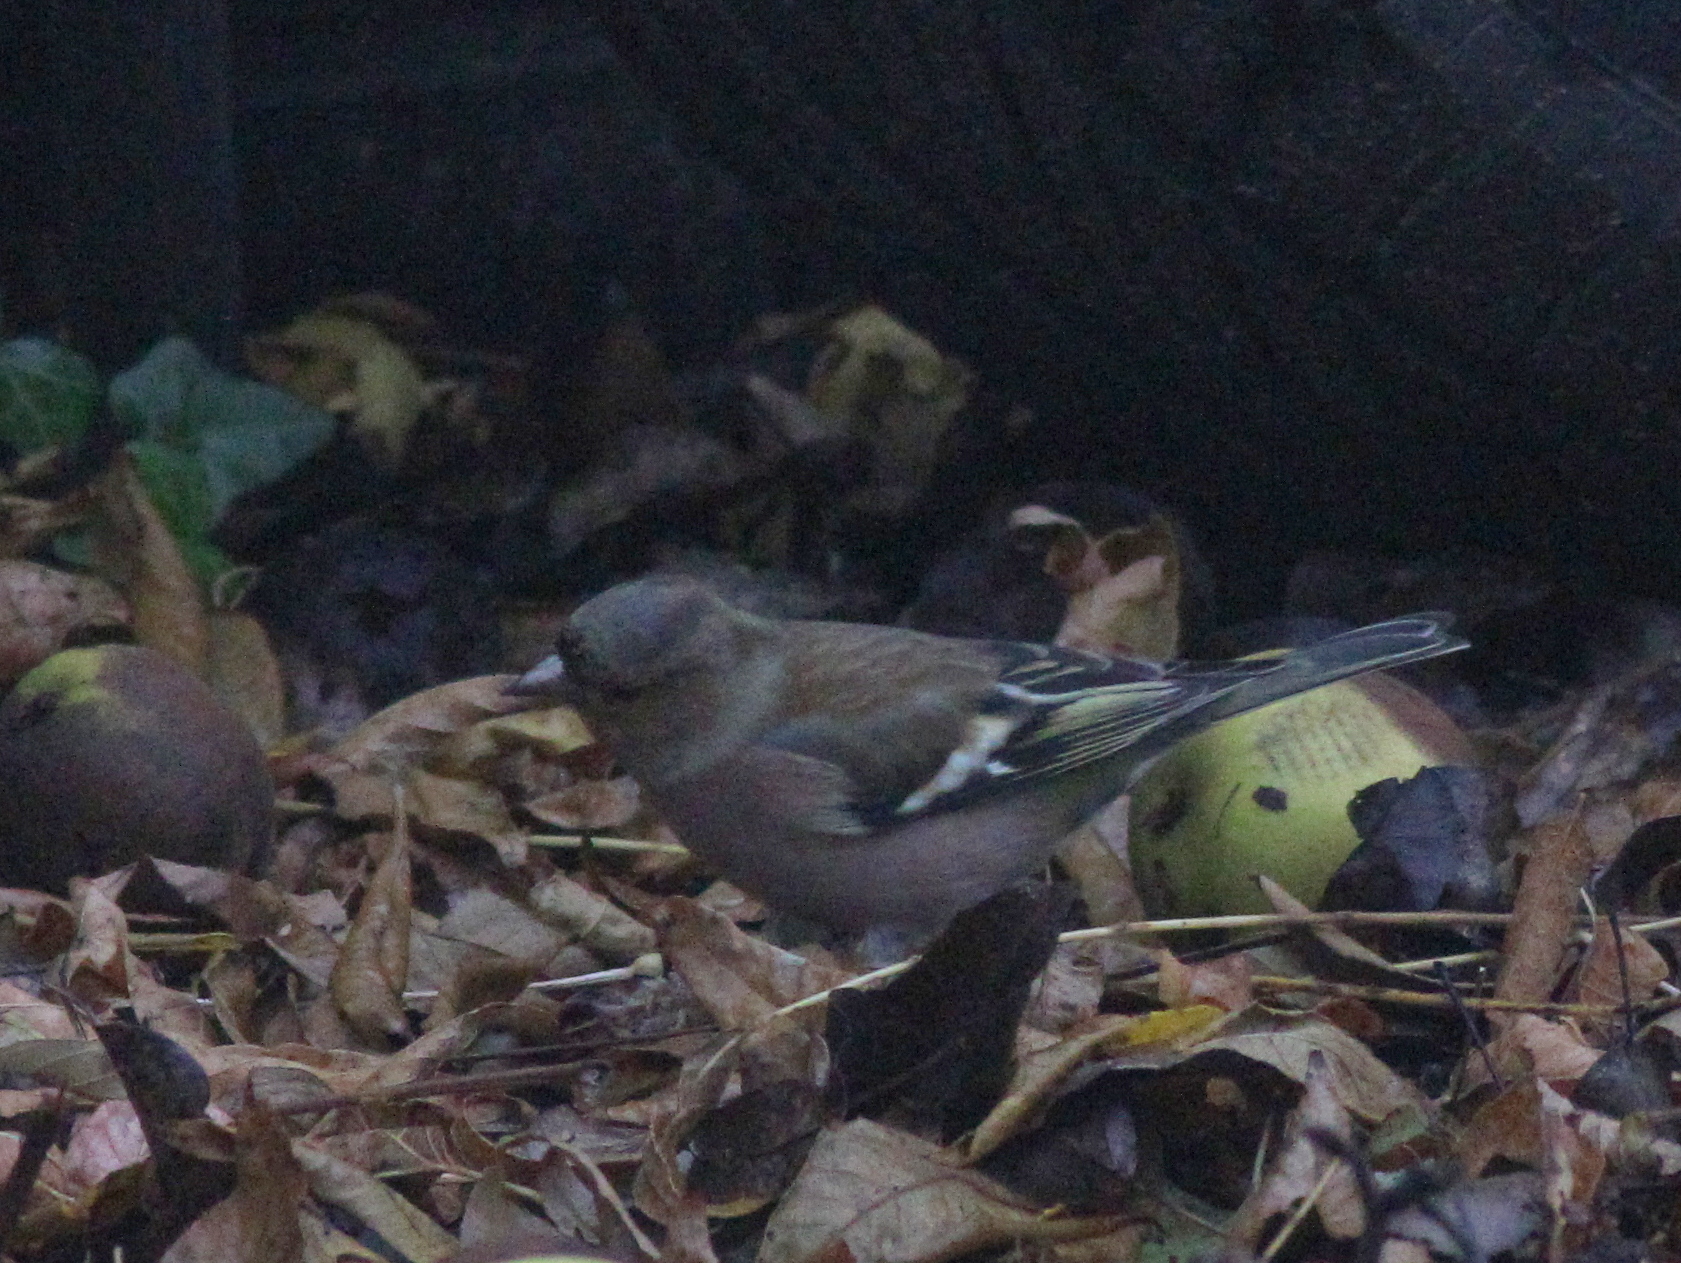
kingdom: Animalia
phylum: Chordata
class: Aves
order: Passeriformes
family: Fringillidae
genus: Fringilla
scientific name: Fringilla coelebs
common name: Common chaffinch
